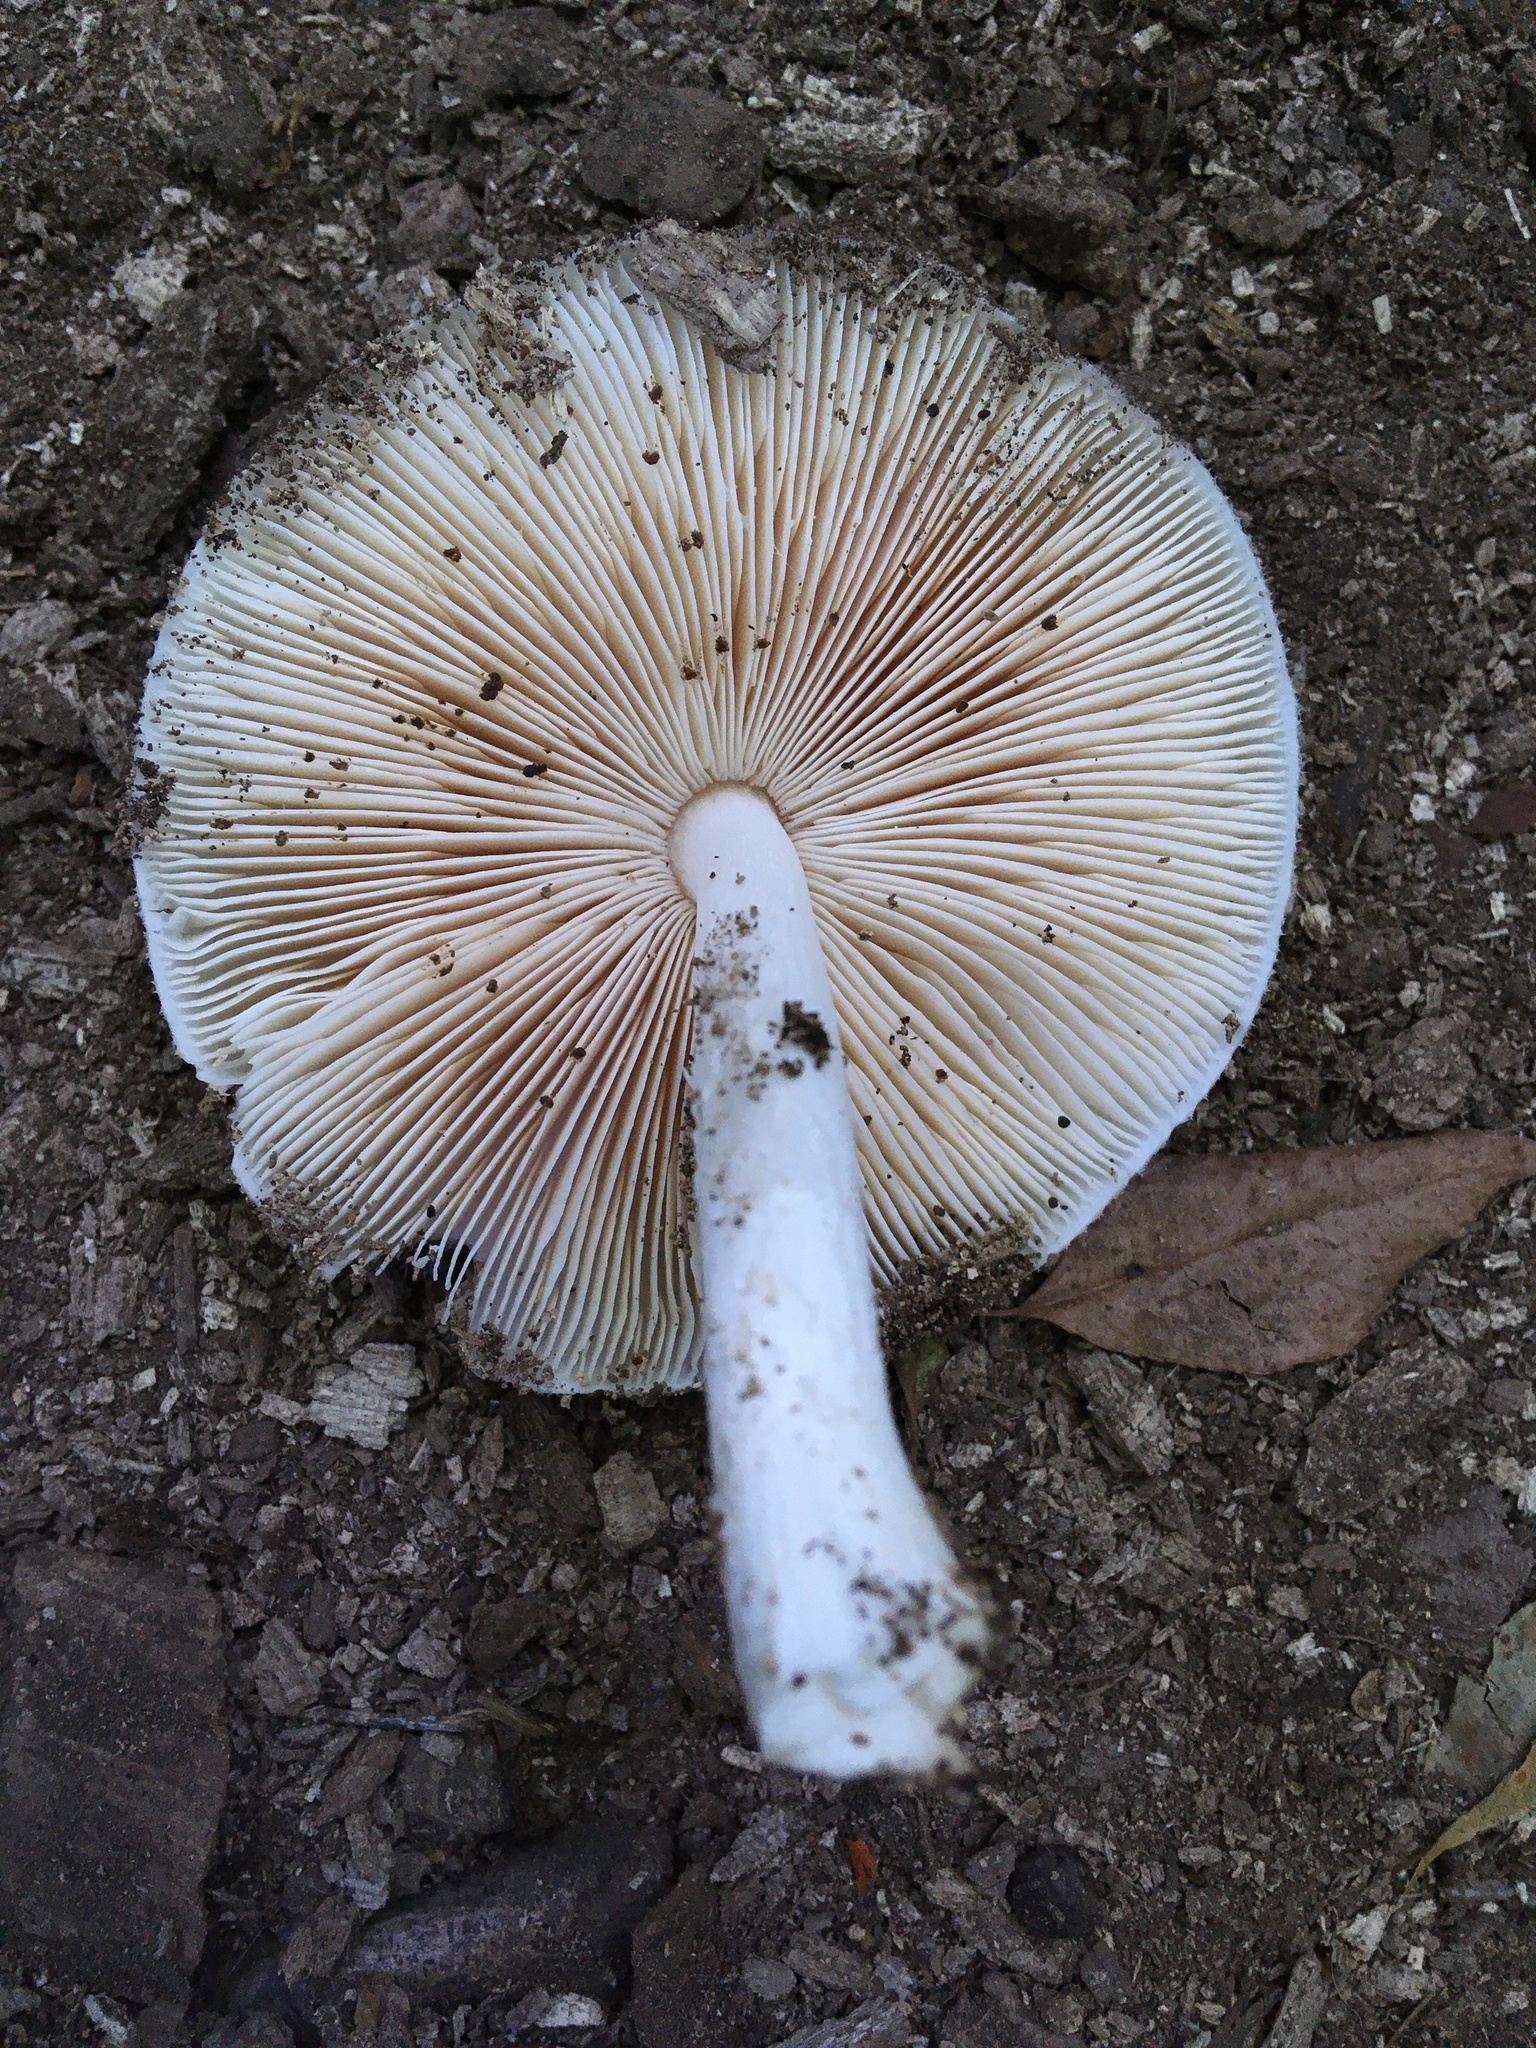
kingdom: Fungi
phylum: Basidiomycota
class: Agaricomycetes
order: Agaricales
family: Pluteaceae
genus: Pluteus
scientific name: Pluteus petasatus
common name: Scaly shield
